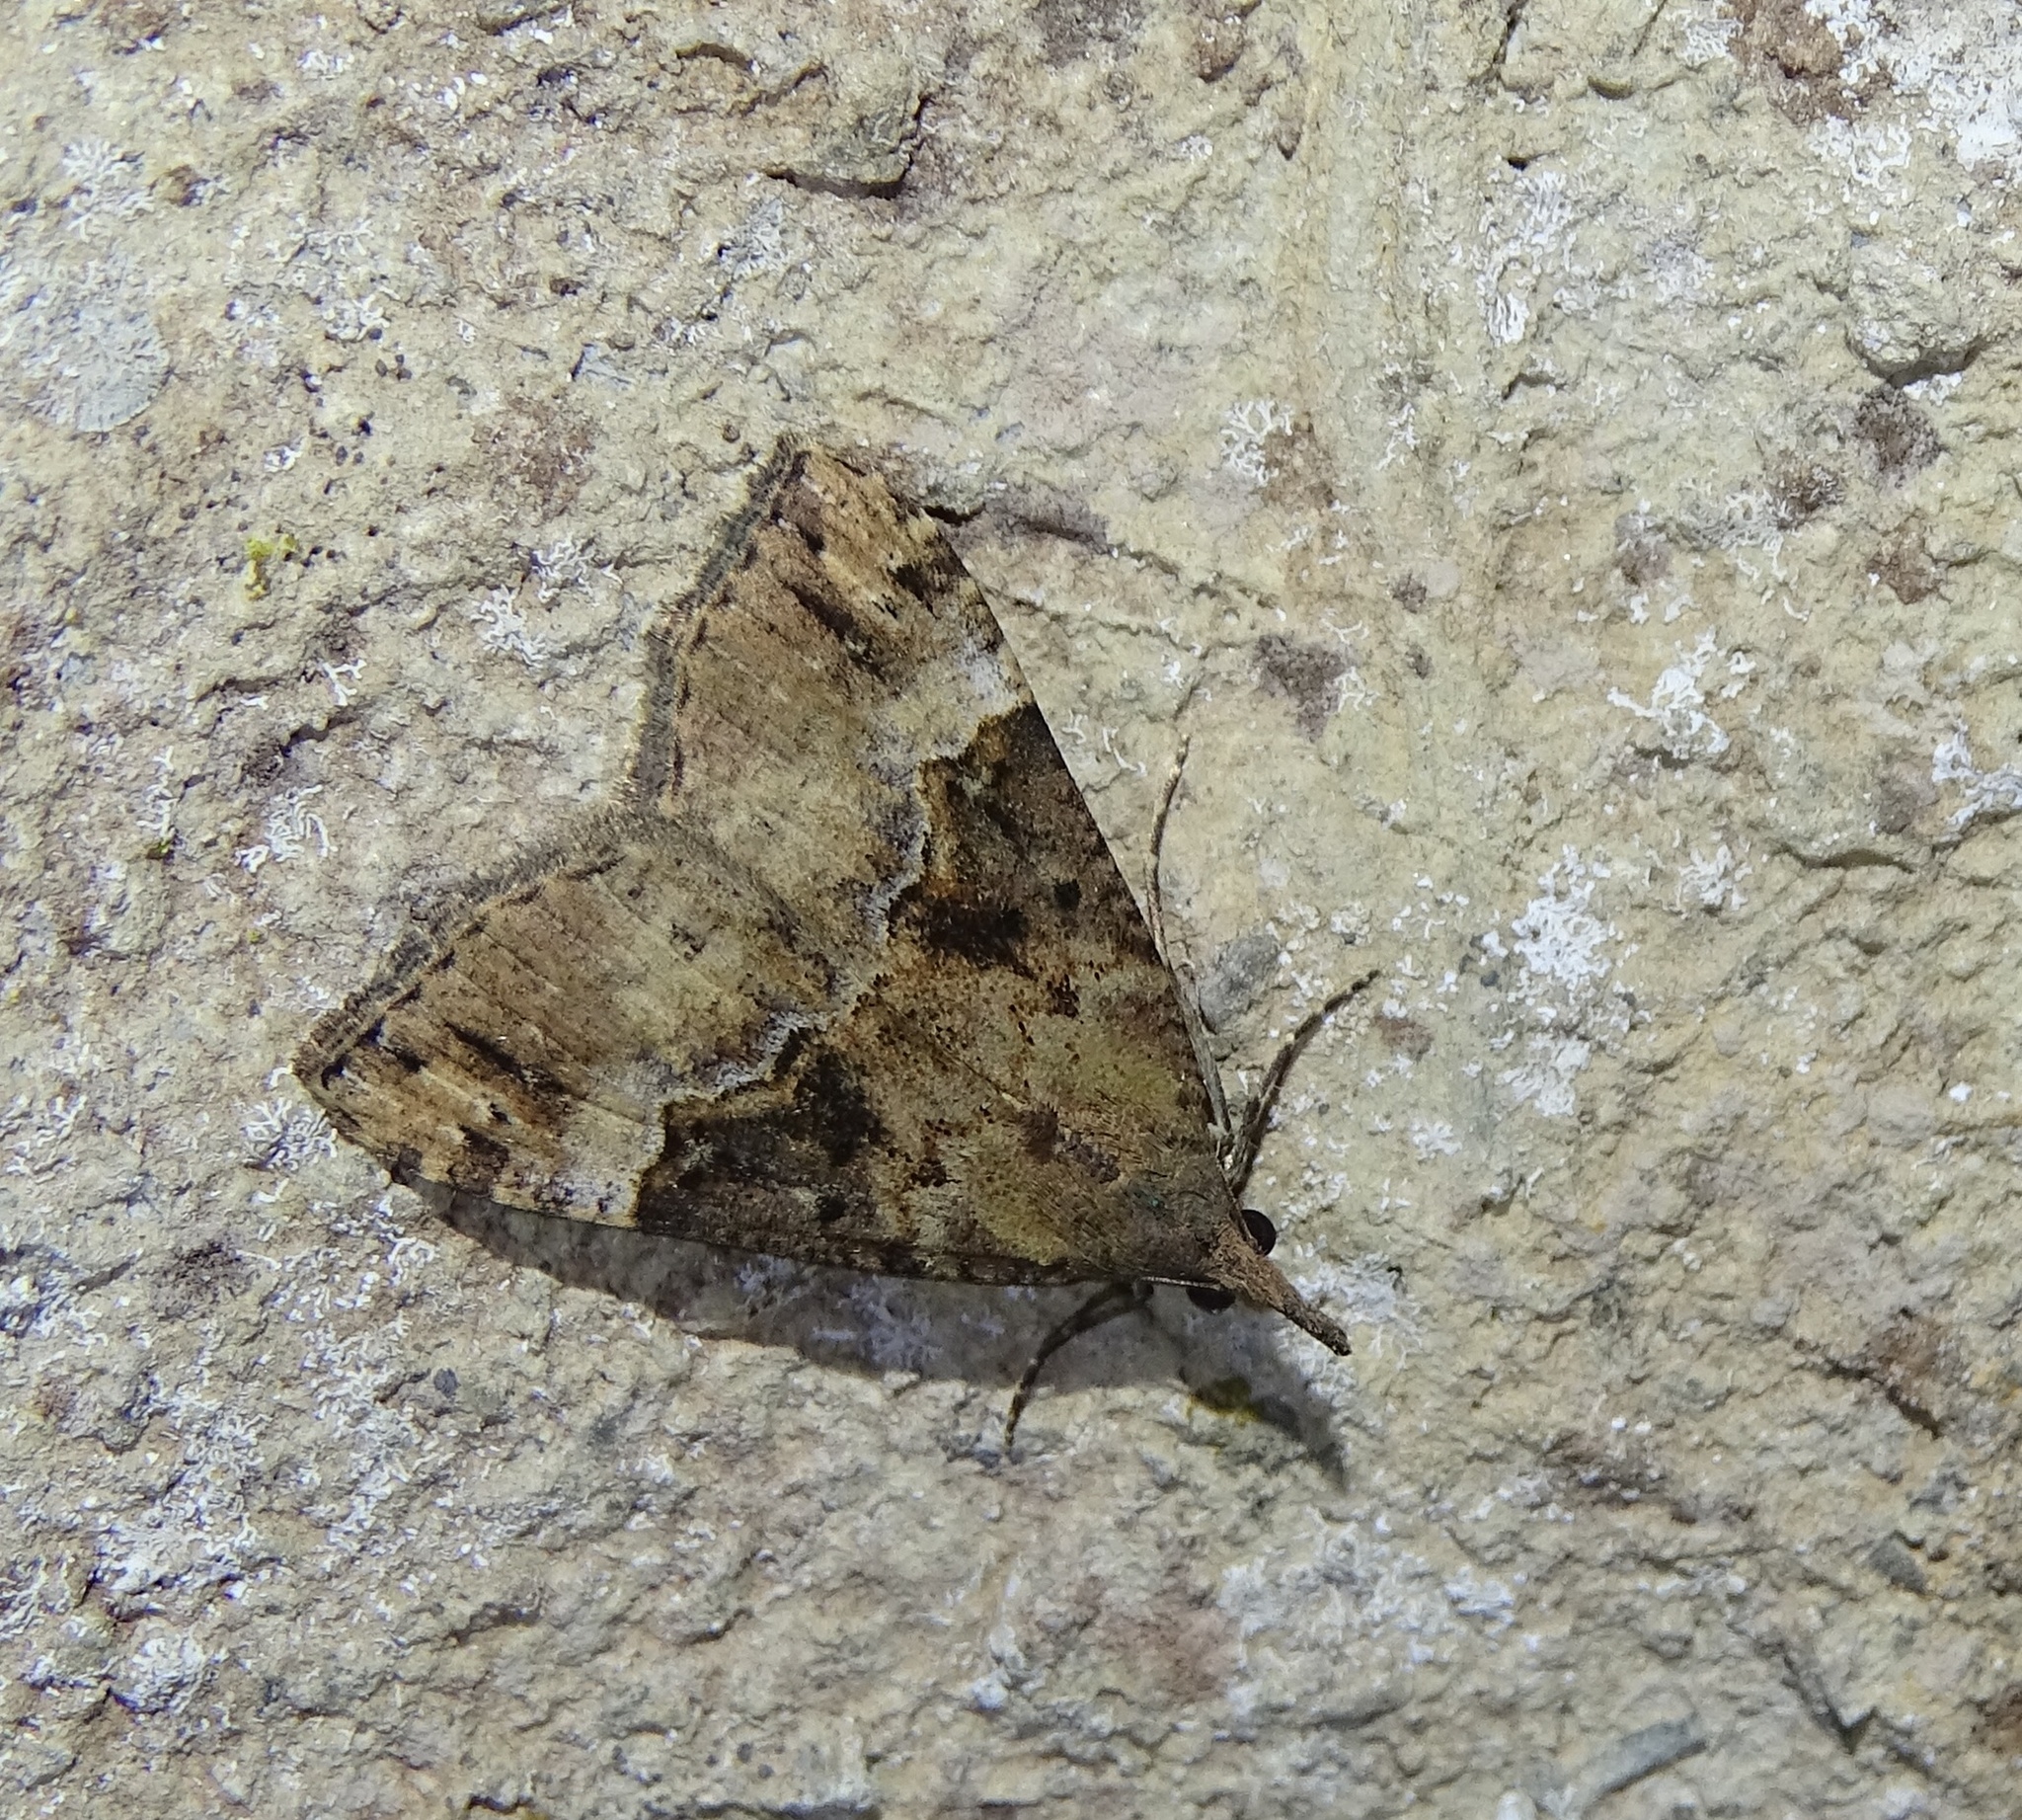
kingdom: Animalia
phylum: Arthropoda
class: Insecta
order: Lepidoptera
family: Erebidae
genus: Hypena
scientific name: Hypena obsitalis
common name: Bloxworth snout
